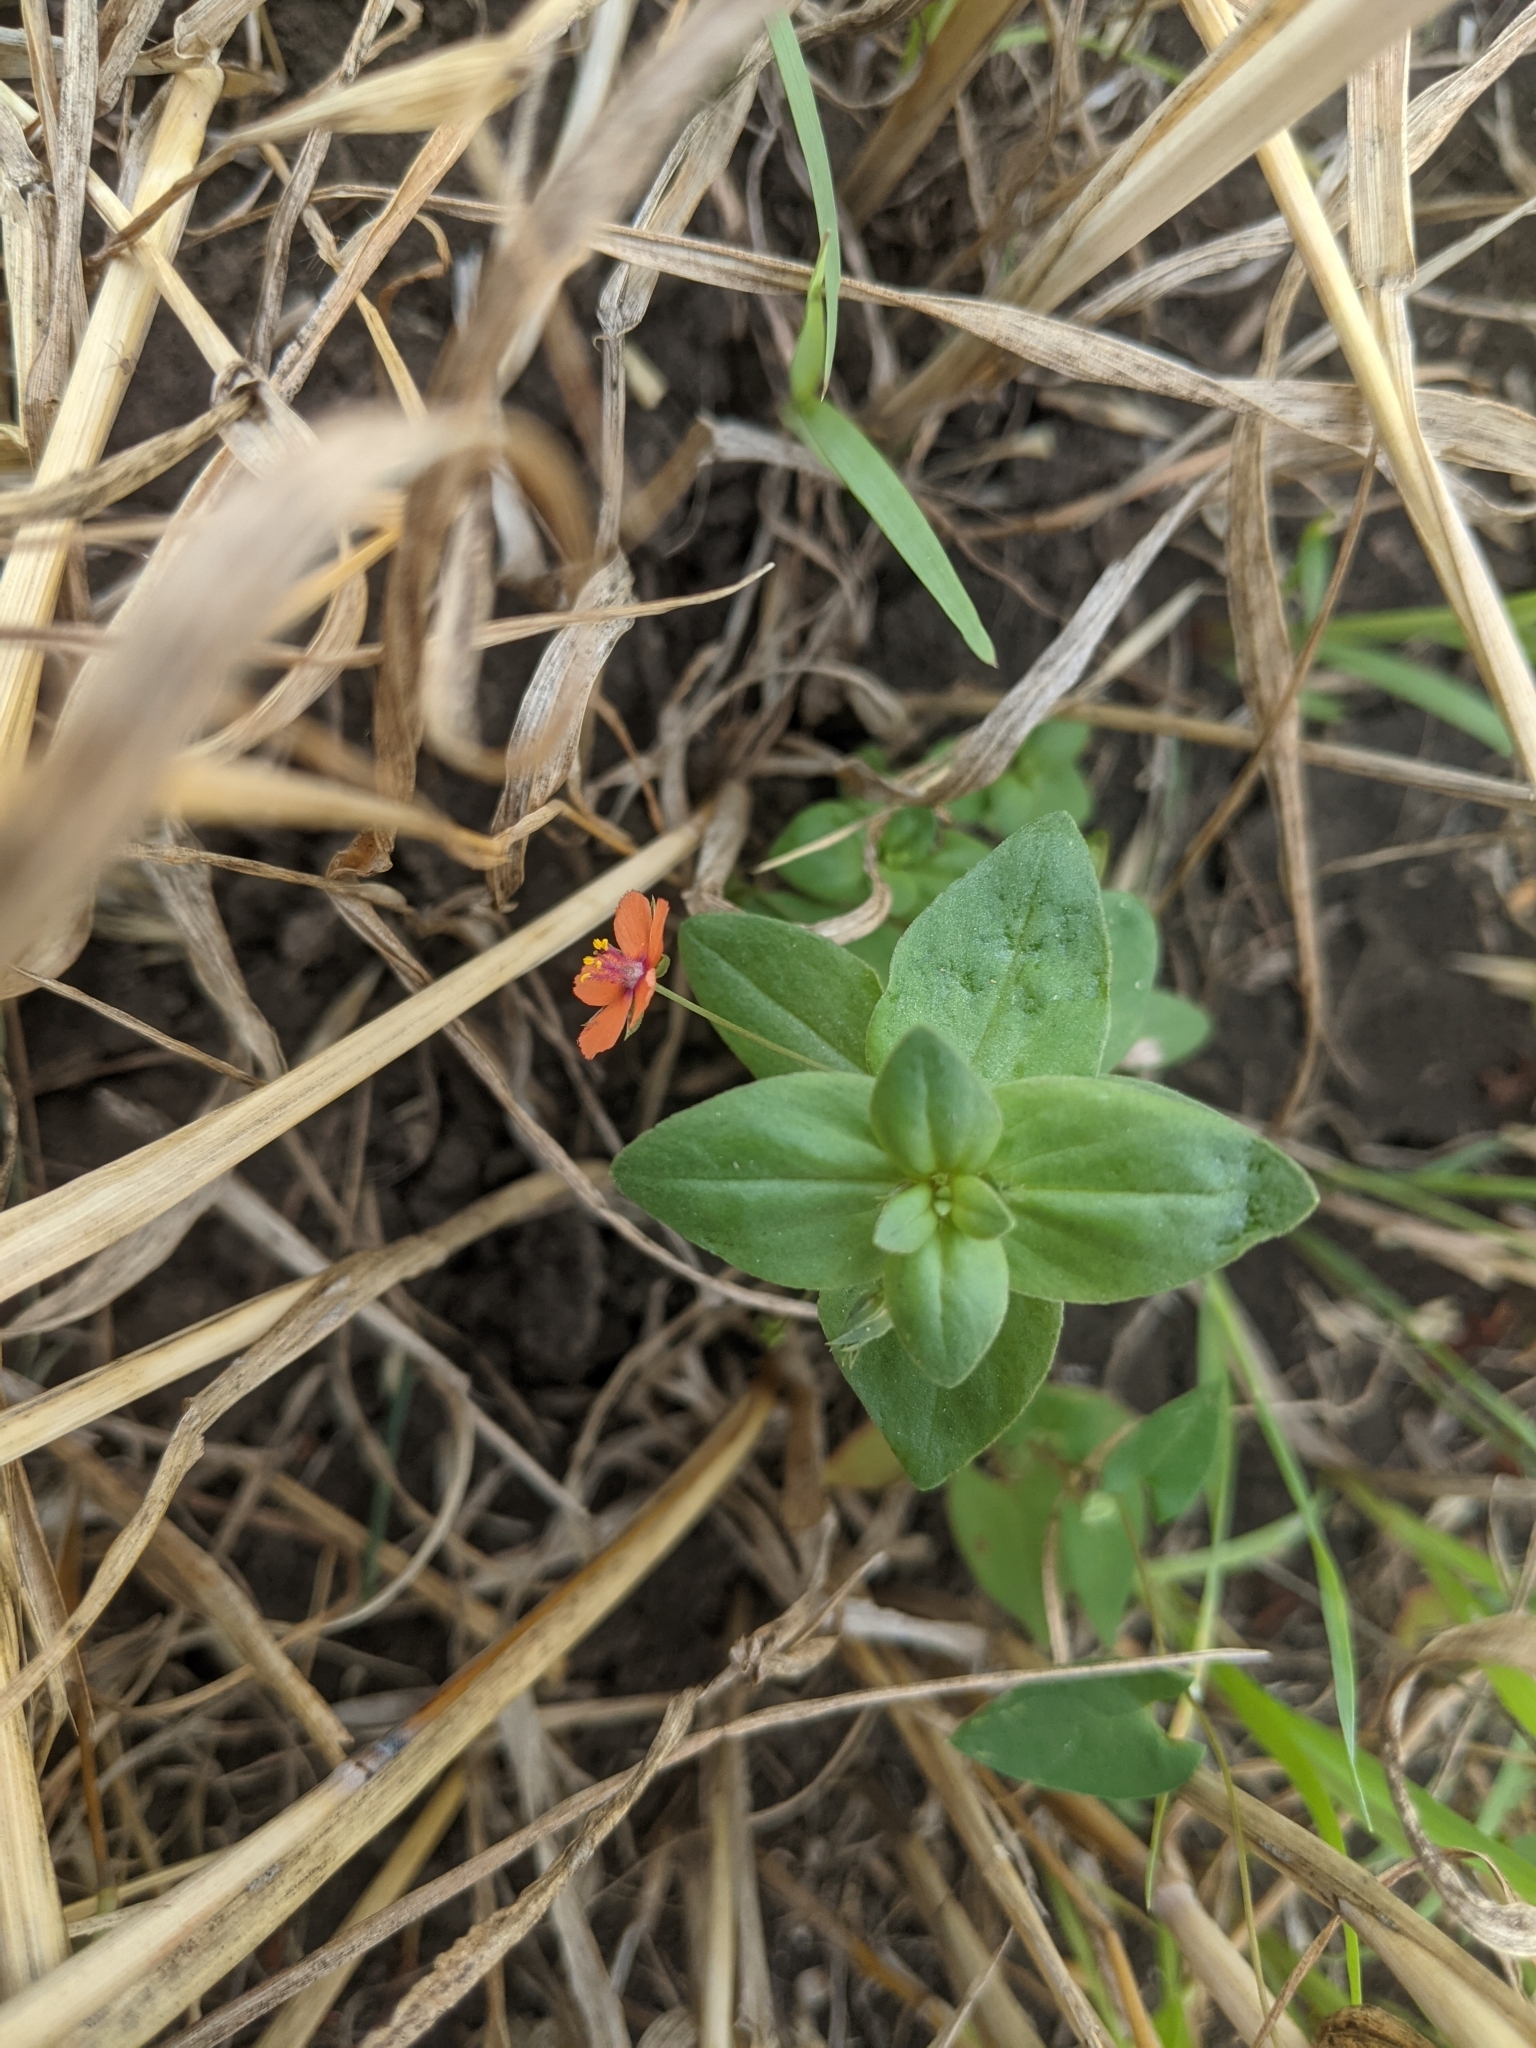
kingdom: Plantae
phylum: Tracheophyta
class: Magnoliopsida
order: Ericales
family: Primulaceae
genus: Lysimachia
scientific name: Lysimachia arvensis
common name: Scarlet pimpernel
